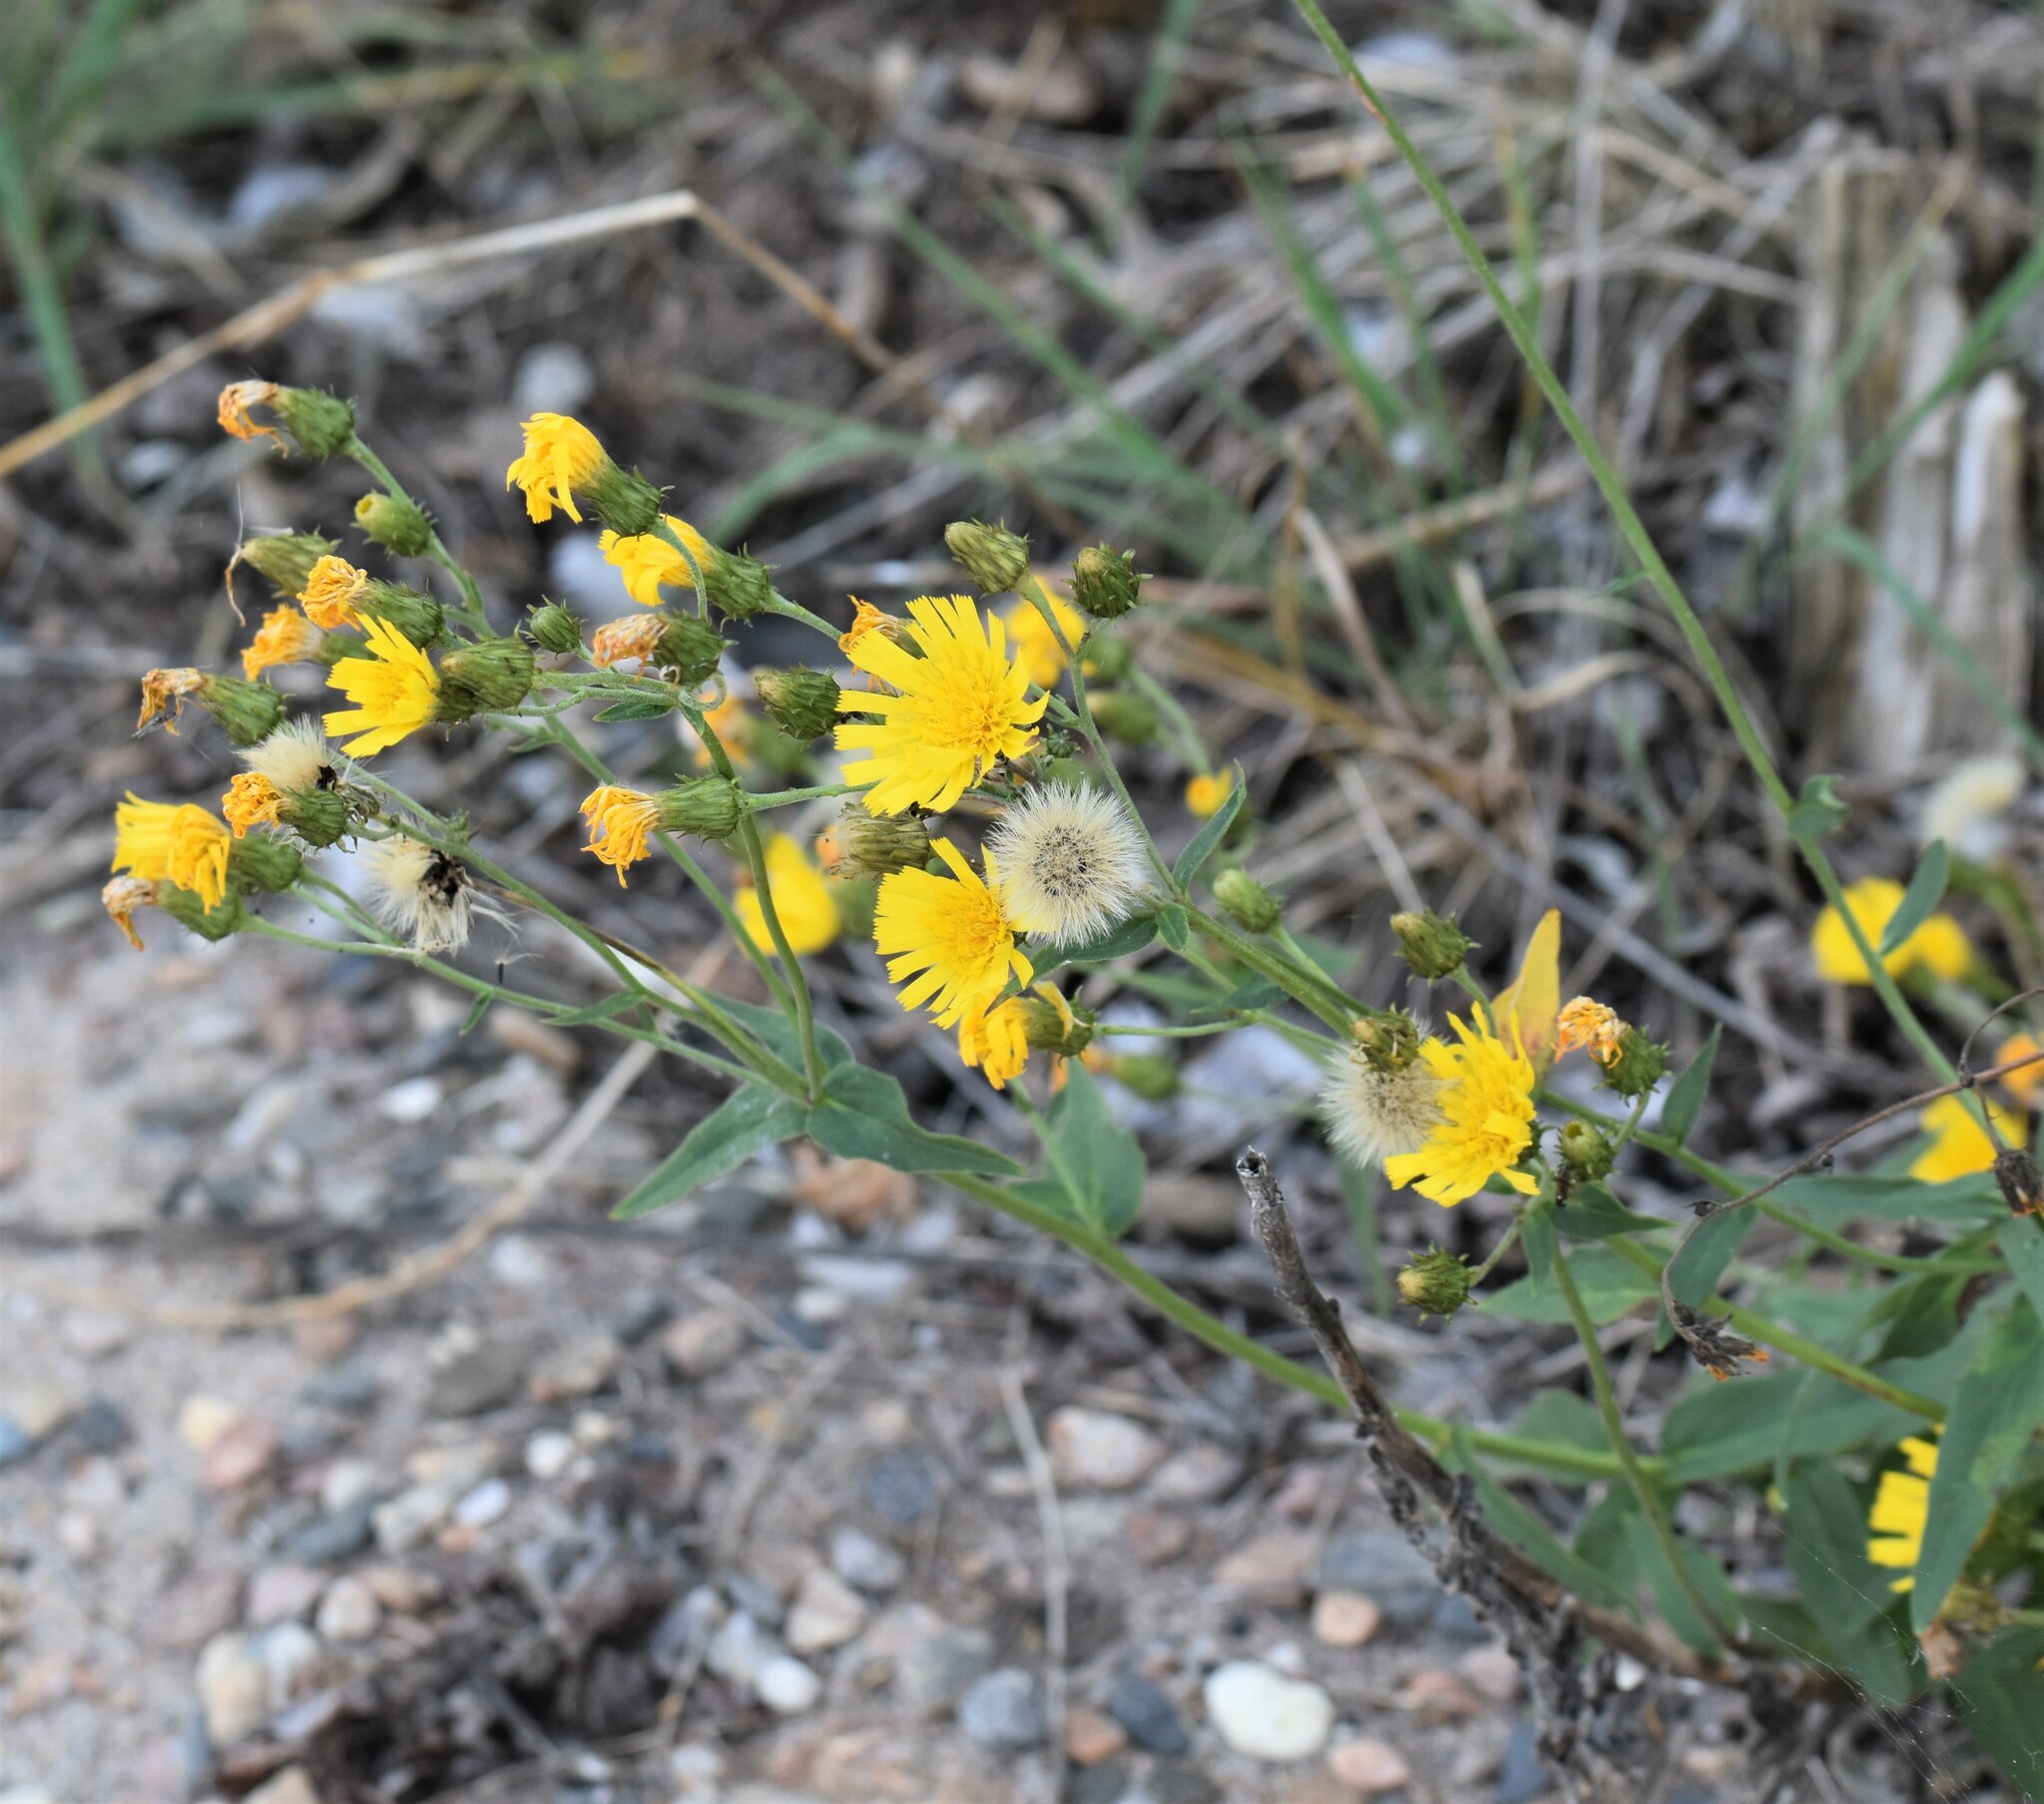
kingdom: Plantae
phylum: Tracheophyta
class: Magnoliopsida
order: Asterales
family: Asteraceae
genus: Hieracium
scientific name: Hieracium umbellatum
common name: Northern hawkweed
